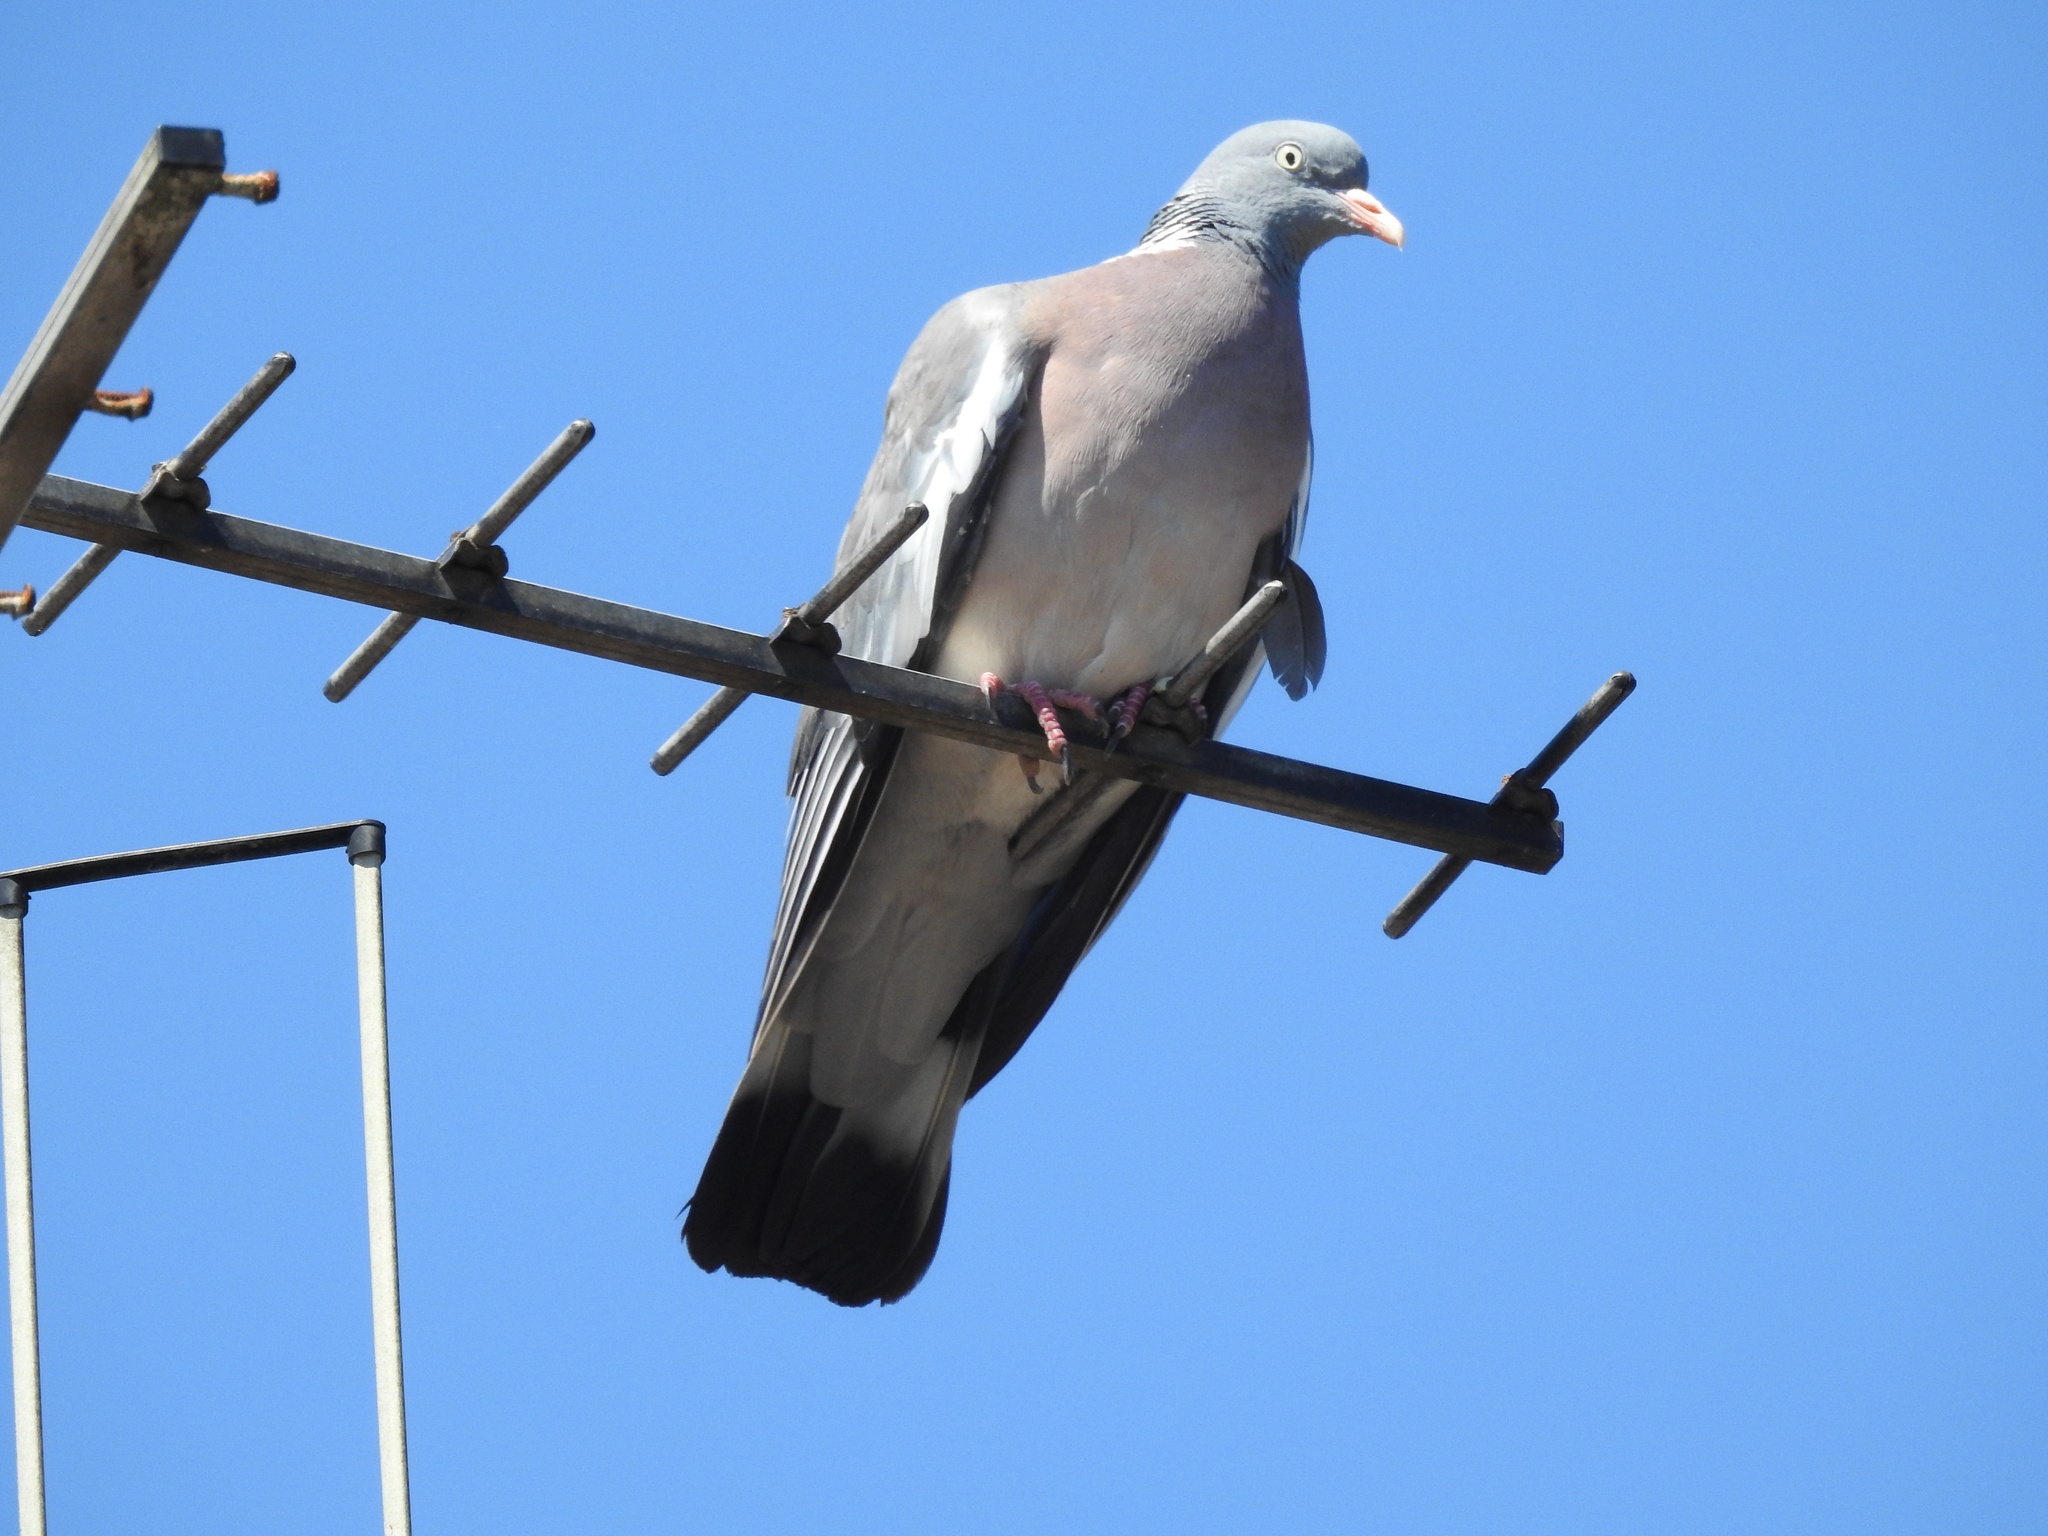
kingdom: Animalia
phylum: Chordata
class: Aves
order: Columbiformes
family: Columbidae
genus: Columba
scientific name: Columba palumbus
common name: Common wood pigeon
